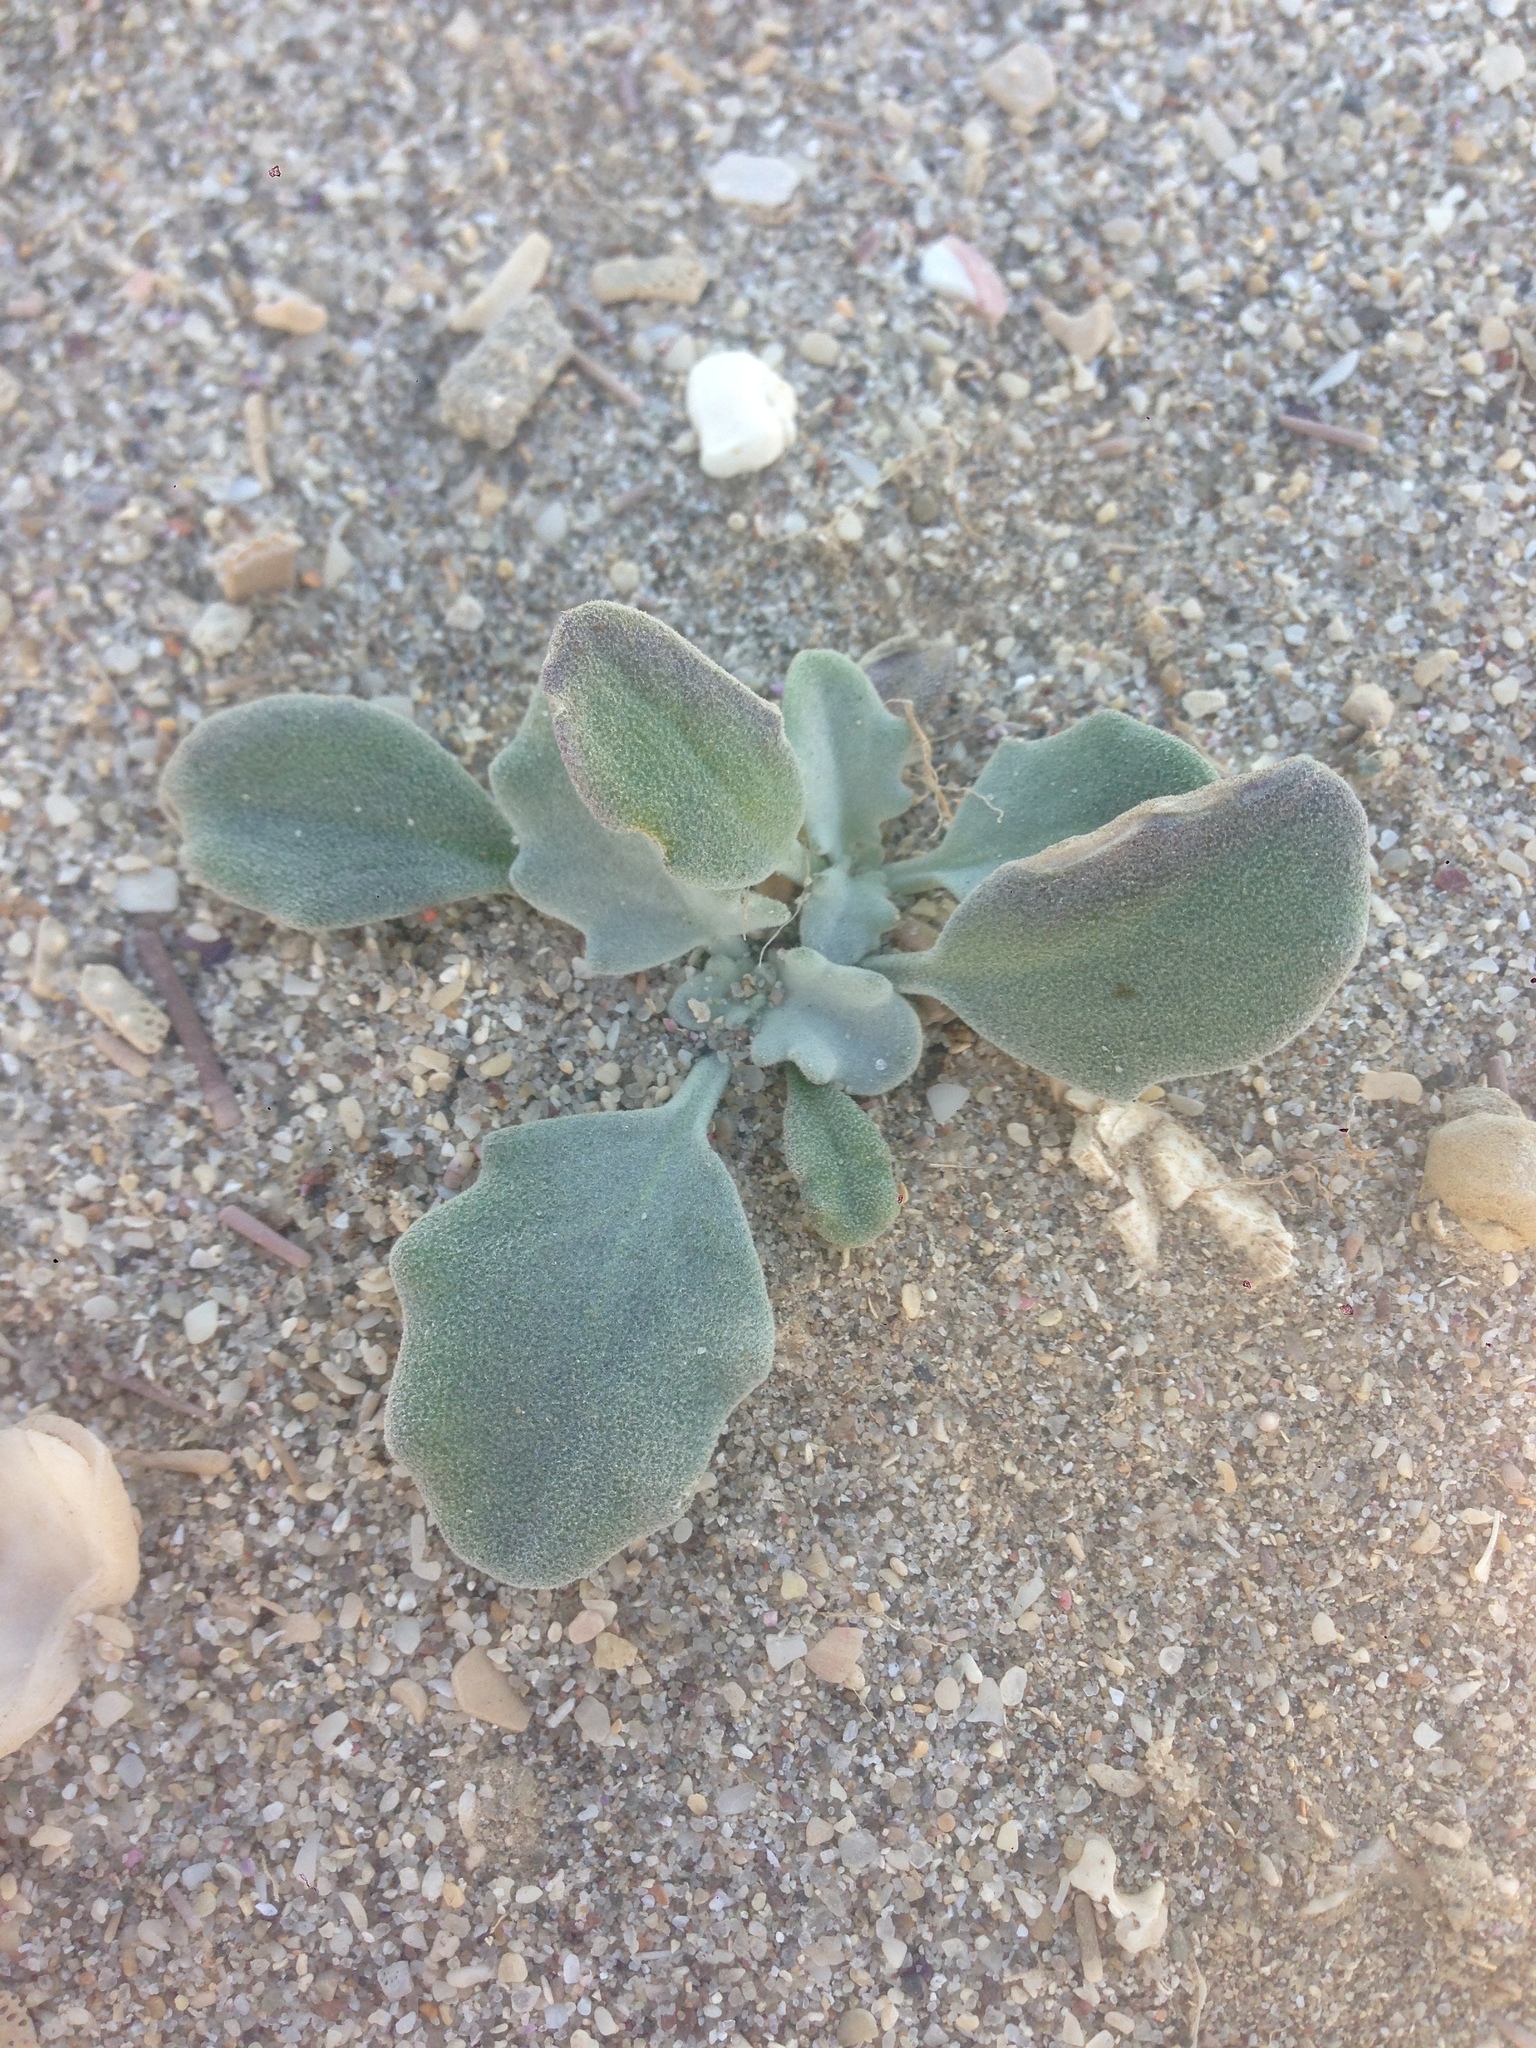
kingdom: Plantae
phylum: Tracheophyta
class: Magnoliopsida
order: Brassicales
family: Brassicaceae
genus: Dithyrea
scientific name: Dithyrea maritima
